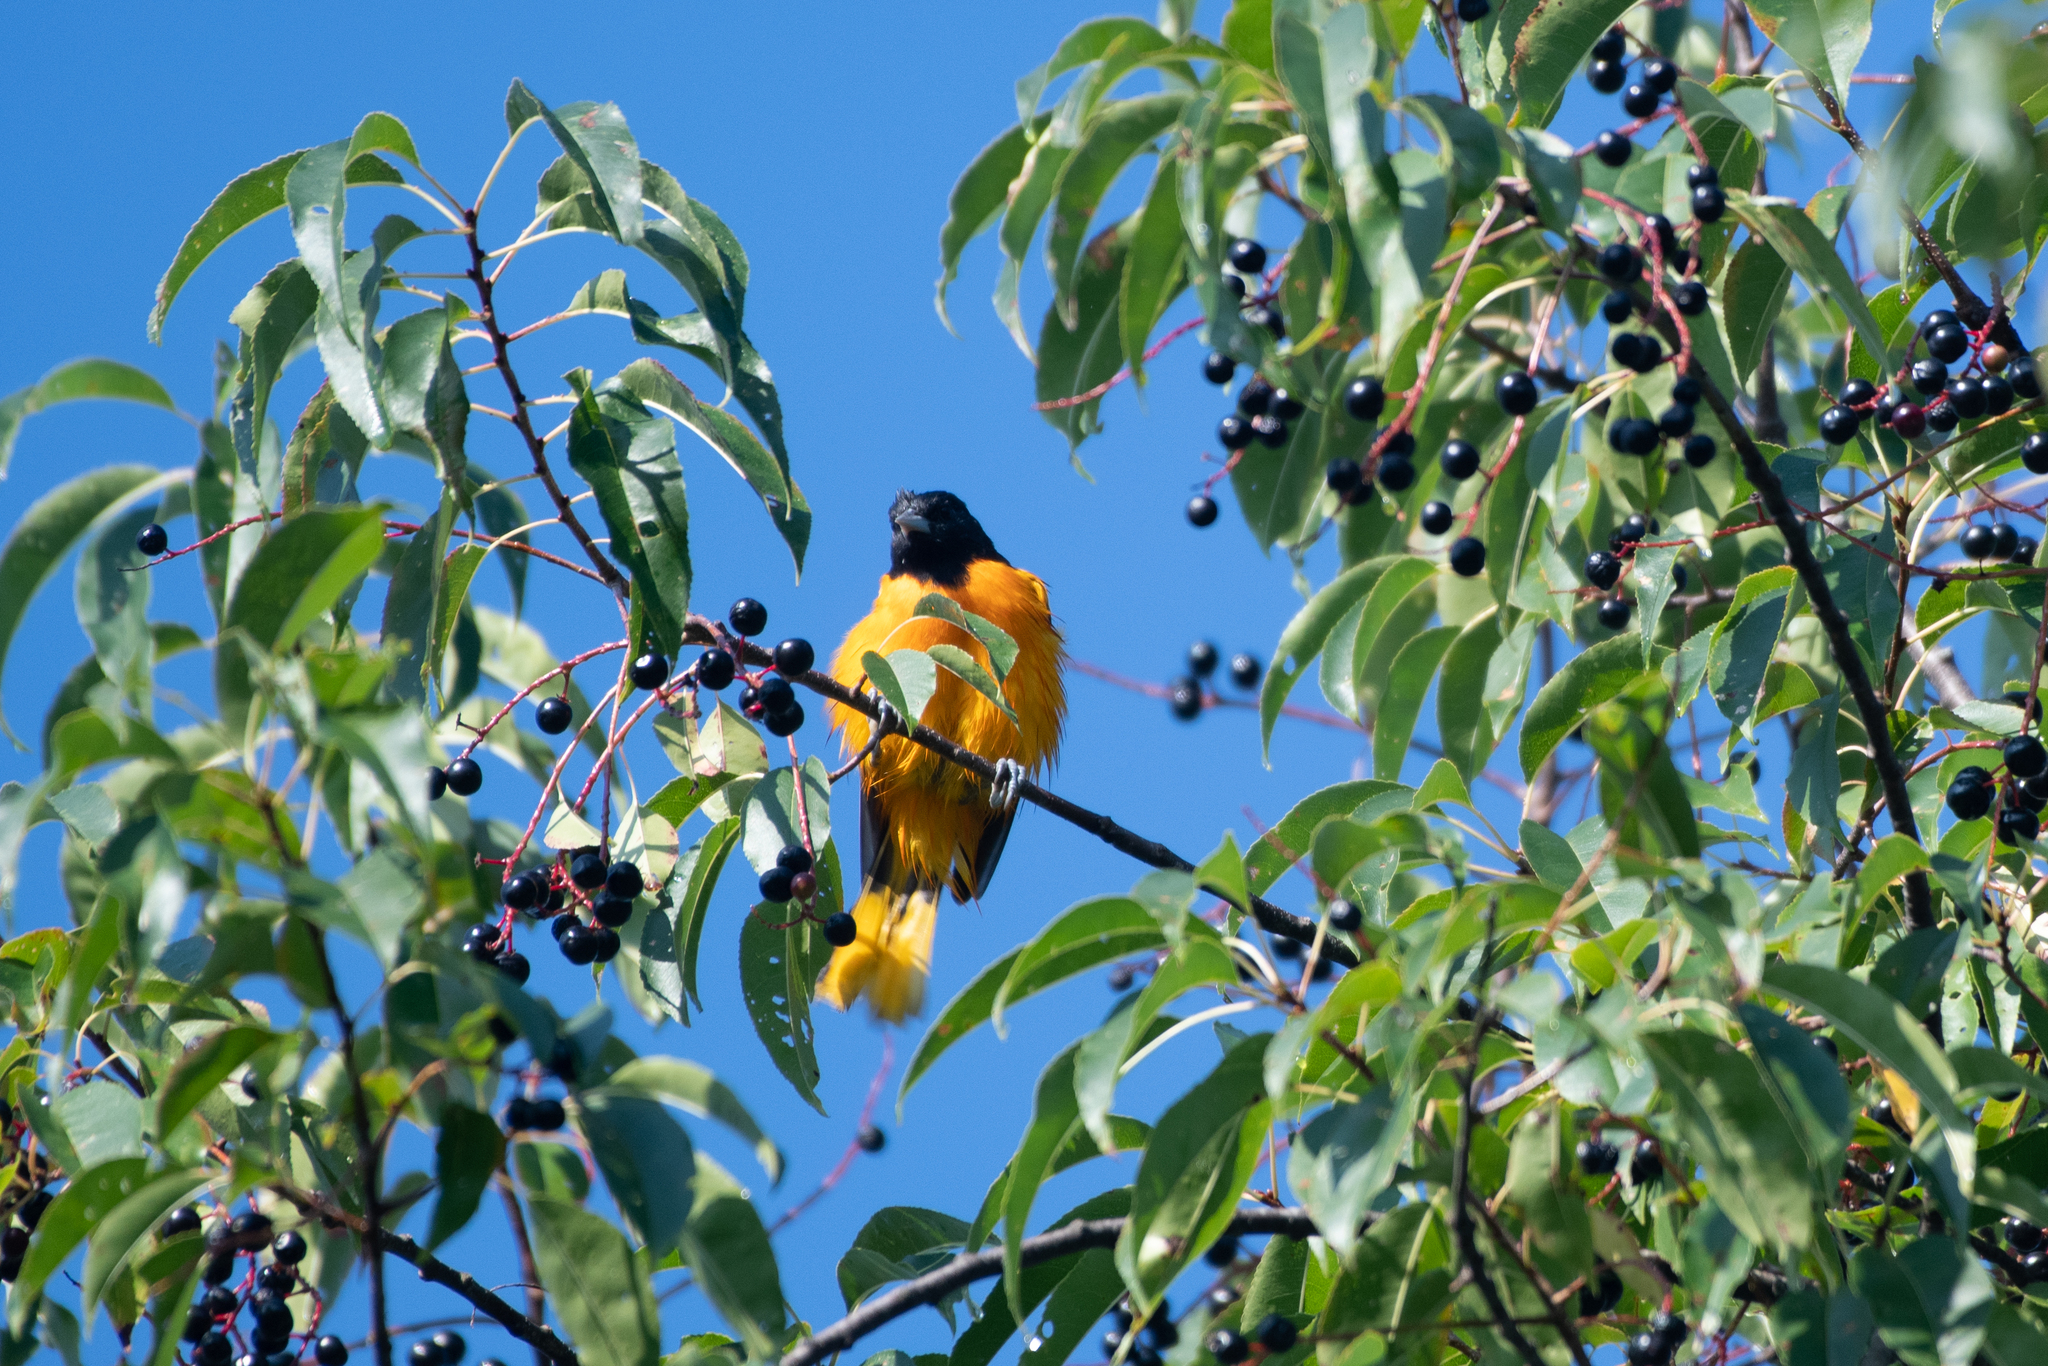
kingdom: Animalia
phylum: Chordata
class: Aves
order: Passeriformes
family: Icteridae
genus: Icterus
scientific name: Icterus galbula
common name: Baltimore oriole
